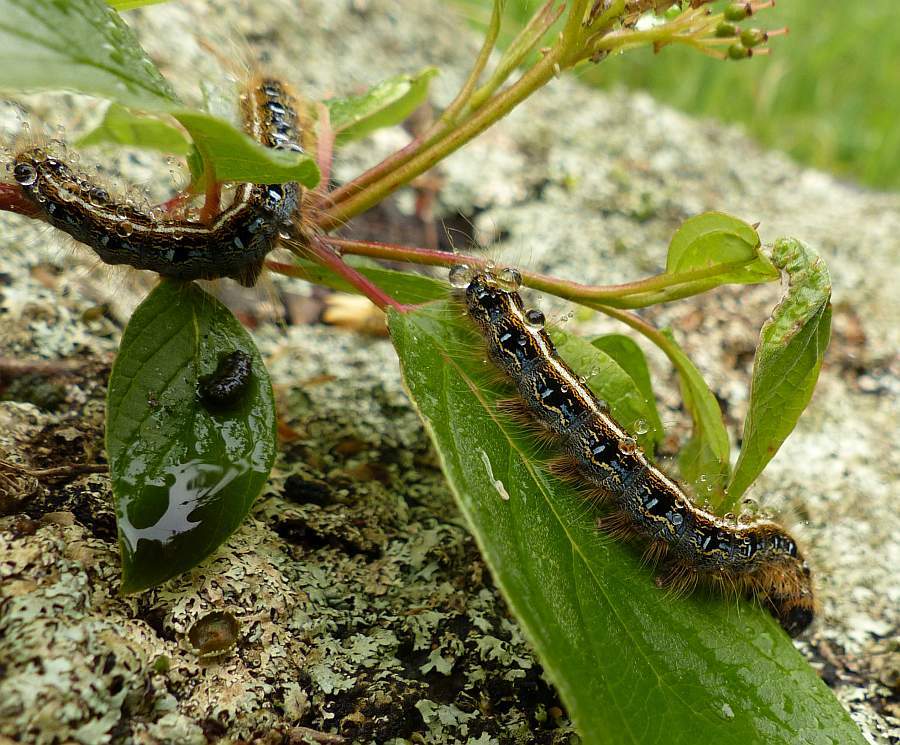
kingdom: Animalia
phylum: Arthropoda
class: Insecta
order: Lepidoptera
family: Lasiocampidae
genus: Malacosoma
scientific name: Malacosoma americana
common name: Eastern tent caterpillar moth
